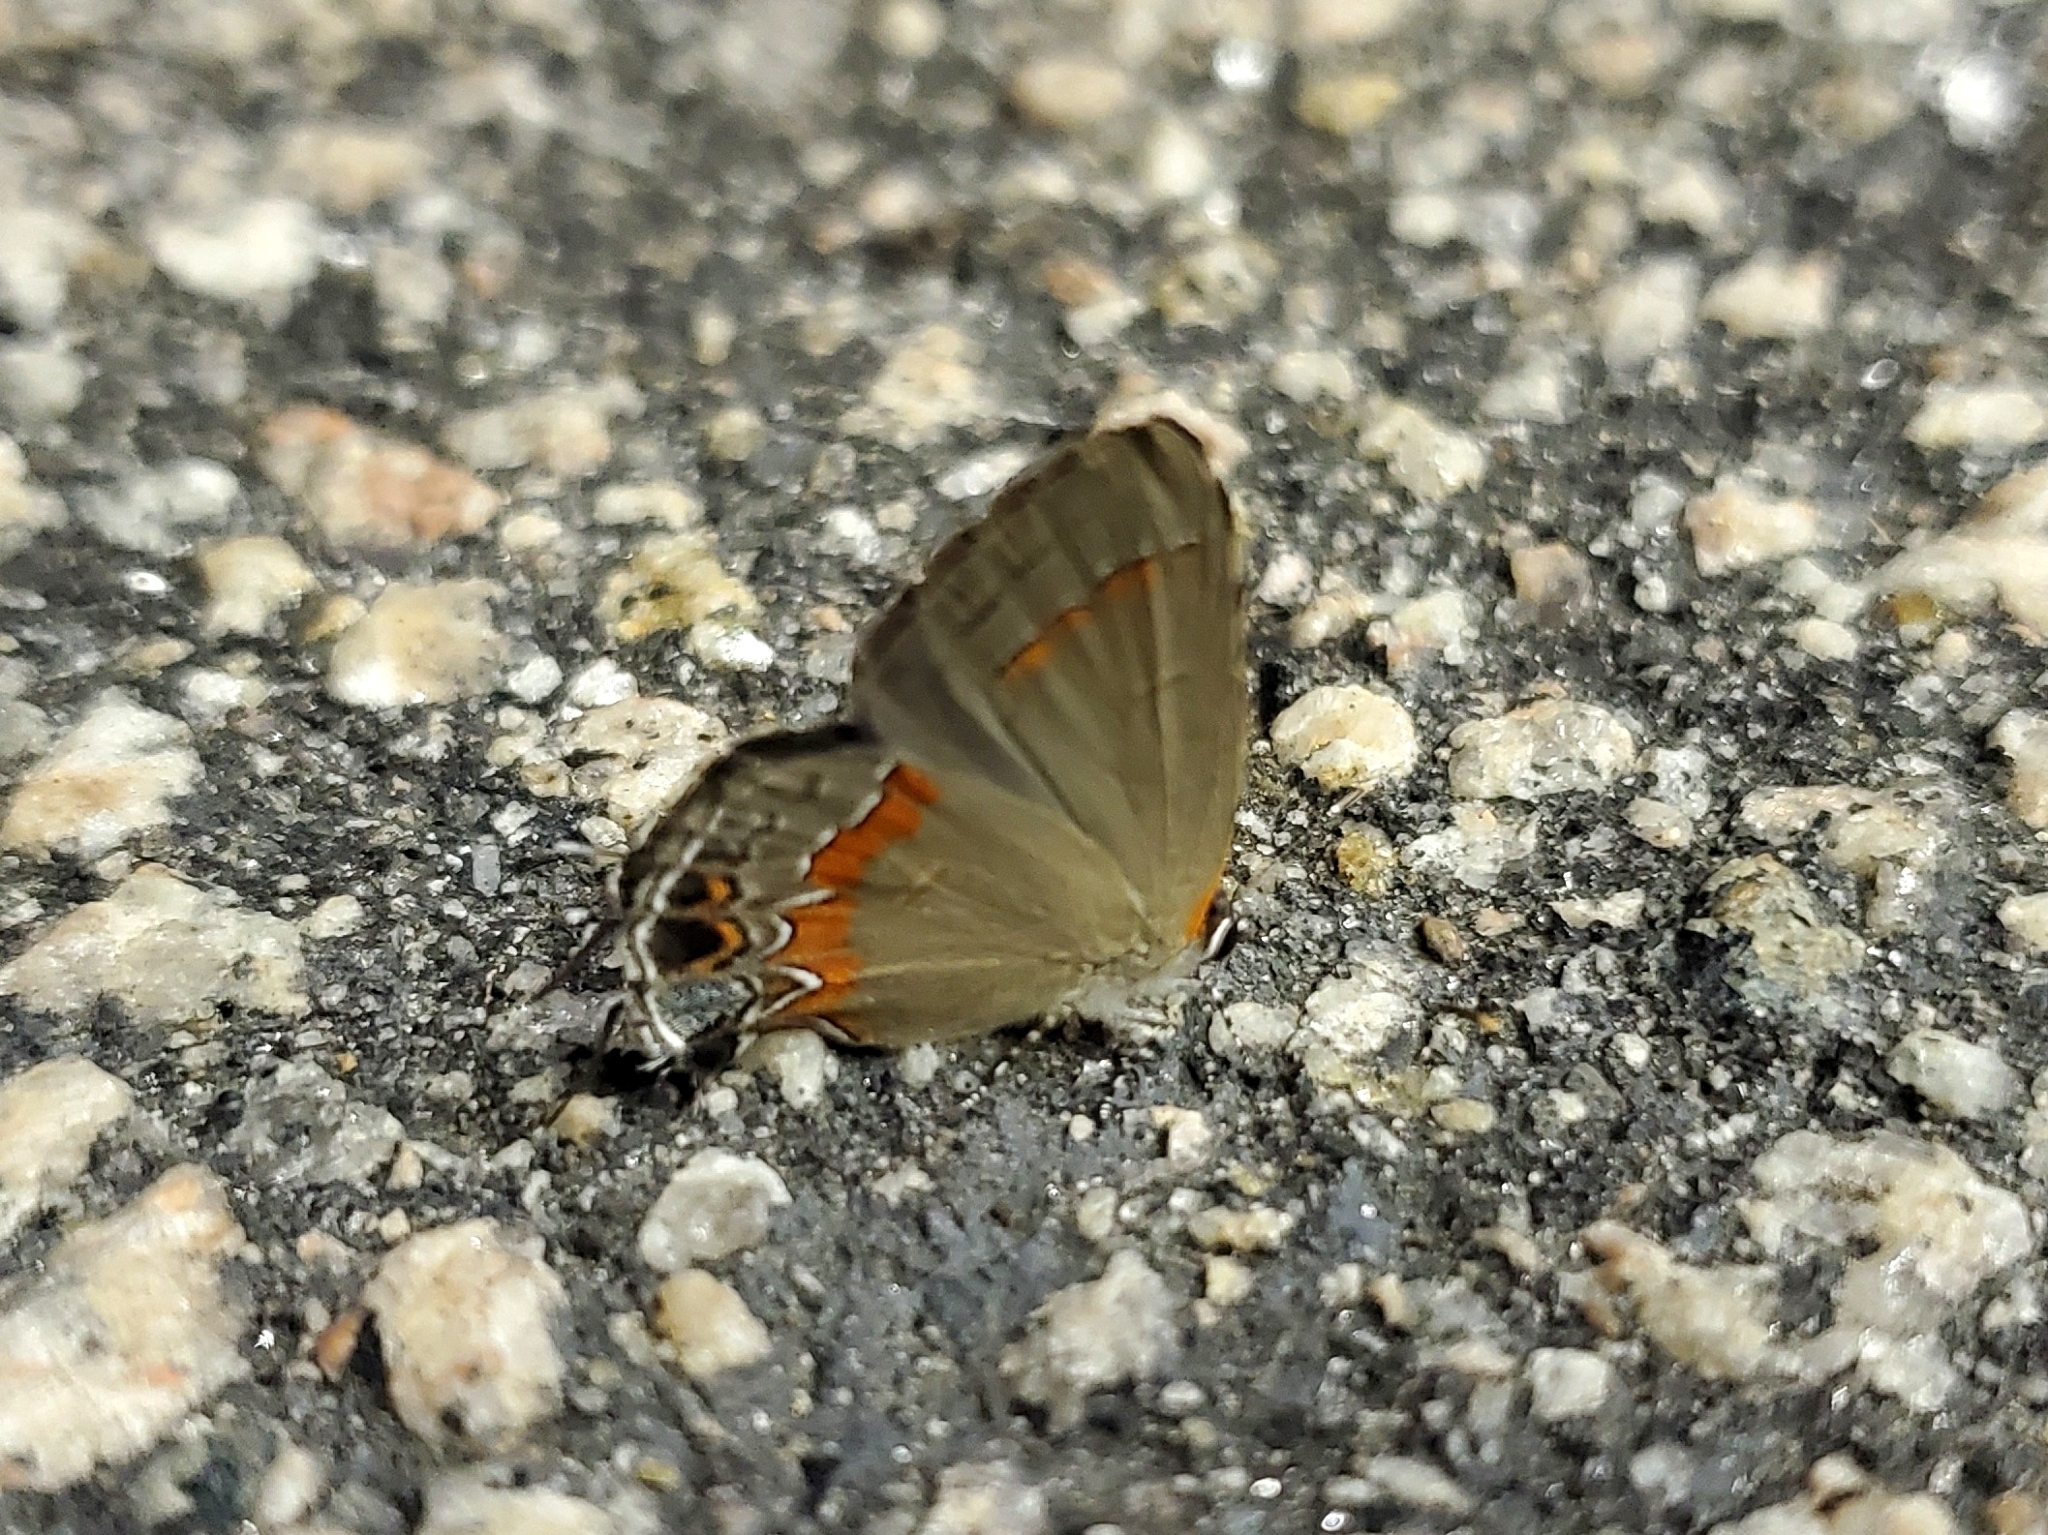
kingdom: Animalia
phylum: Arthropoda
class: Insecta
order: Lepidoptera
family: Lycaenidae
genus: Calycopis
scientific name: Calycopis cecrops
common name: Red-banded hairstreak
